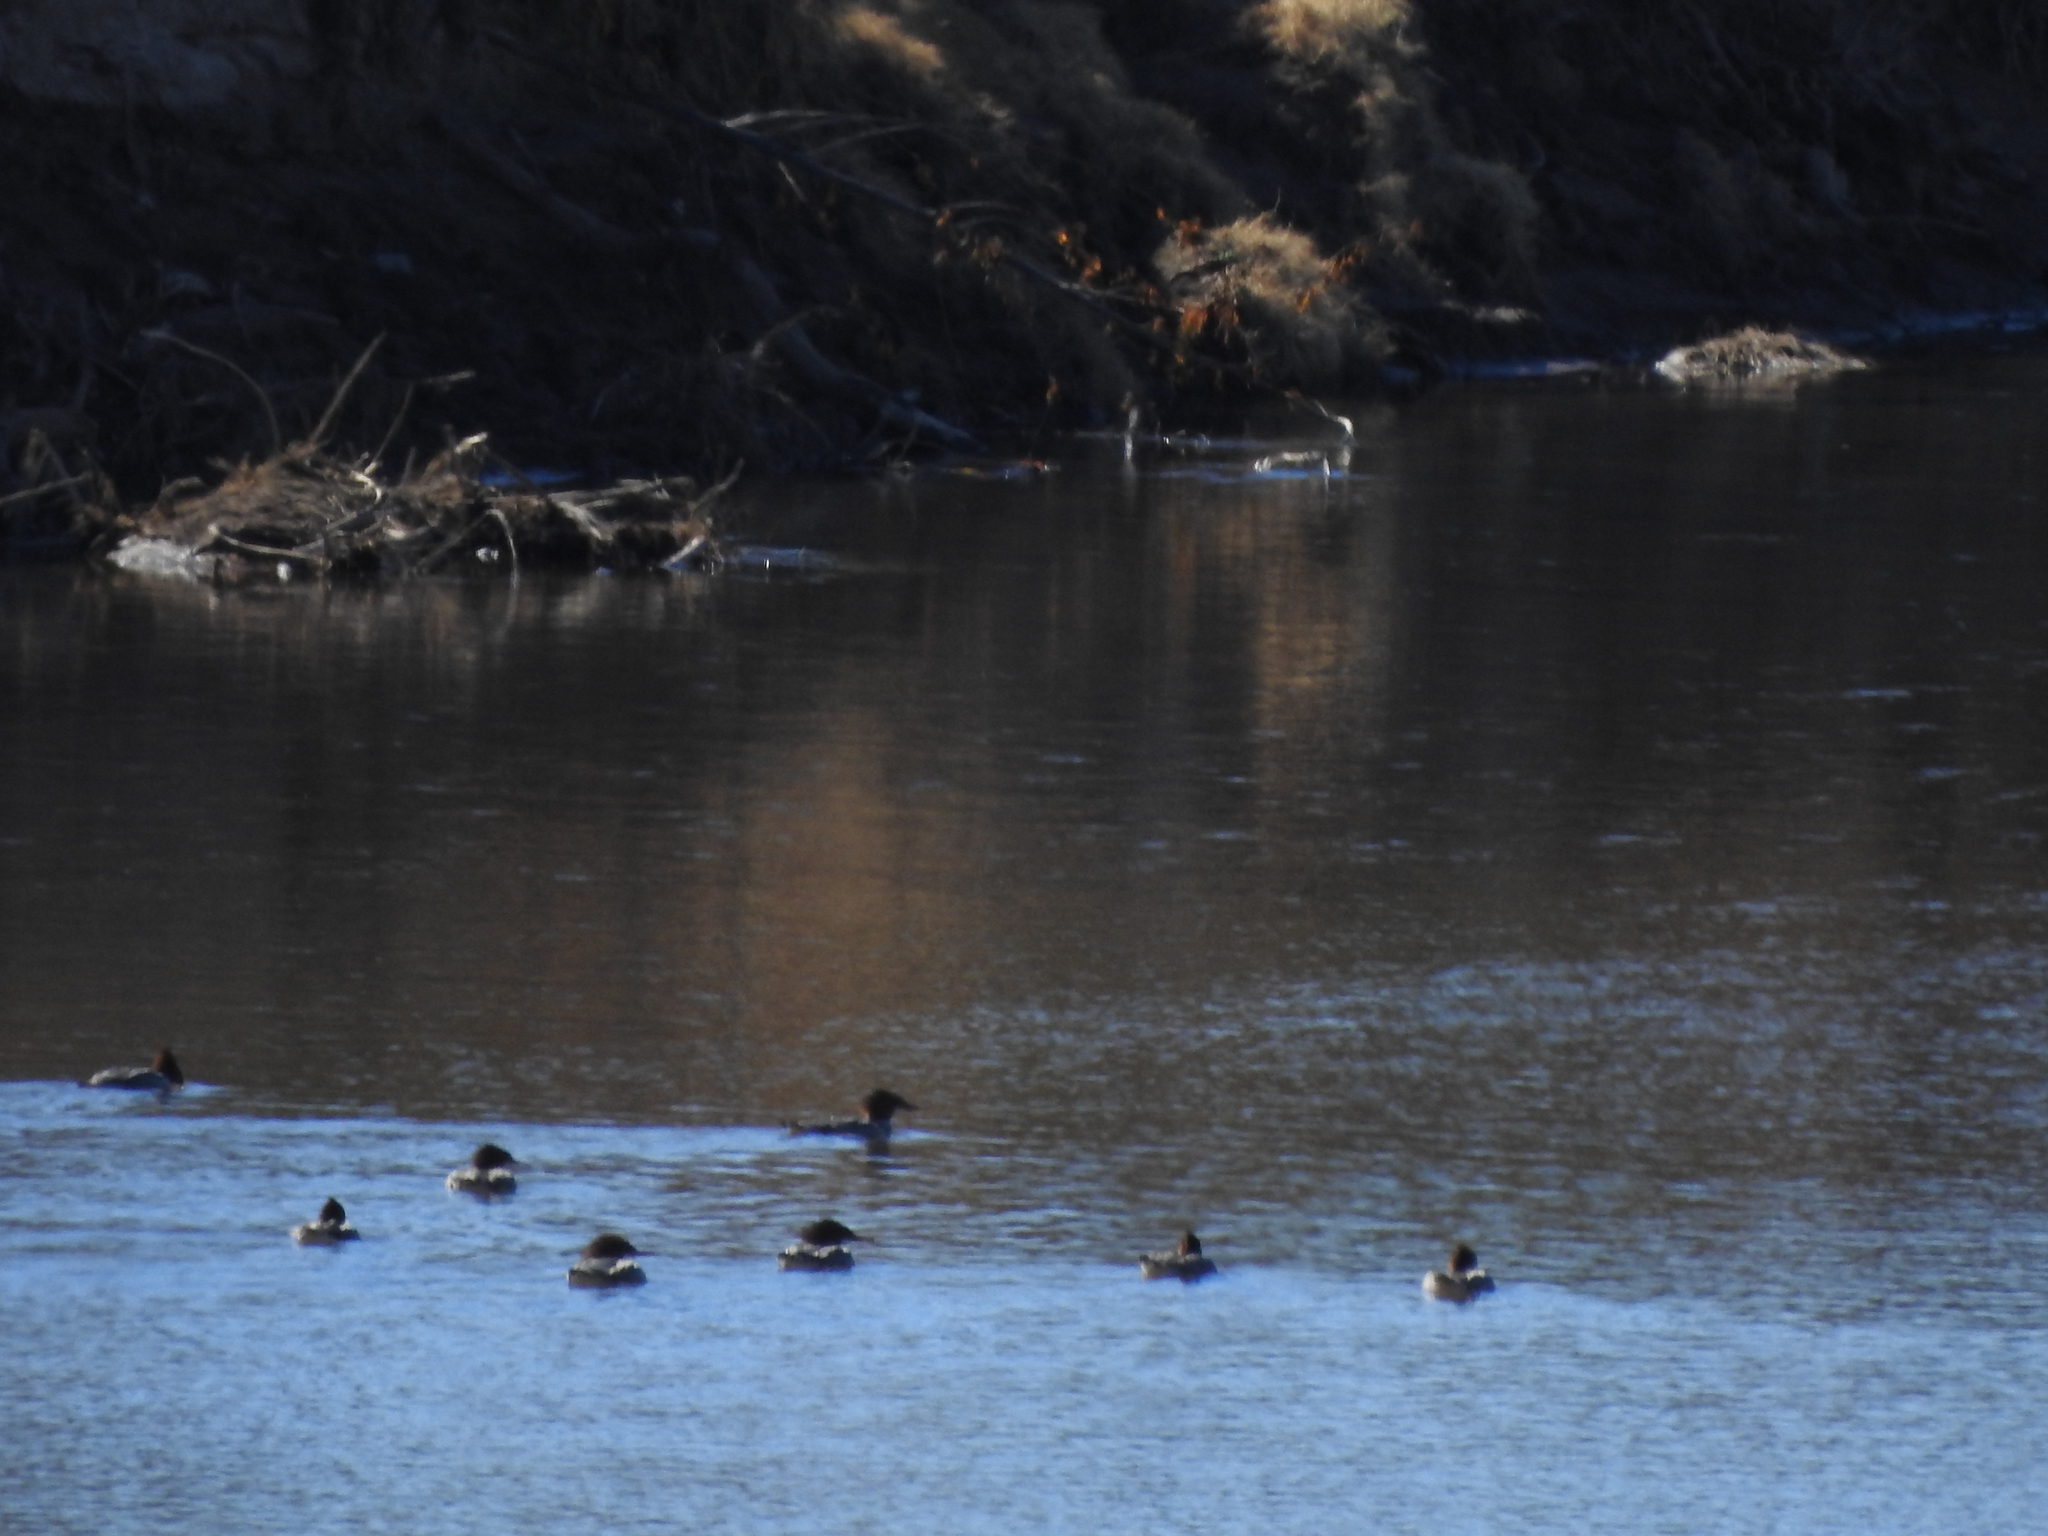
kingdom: Animalia
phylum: Chordata
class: Aves
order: Anseriformes
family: Anatidae
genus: Mergus
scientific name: Mergus merganser
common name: Common merganser
